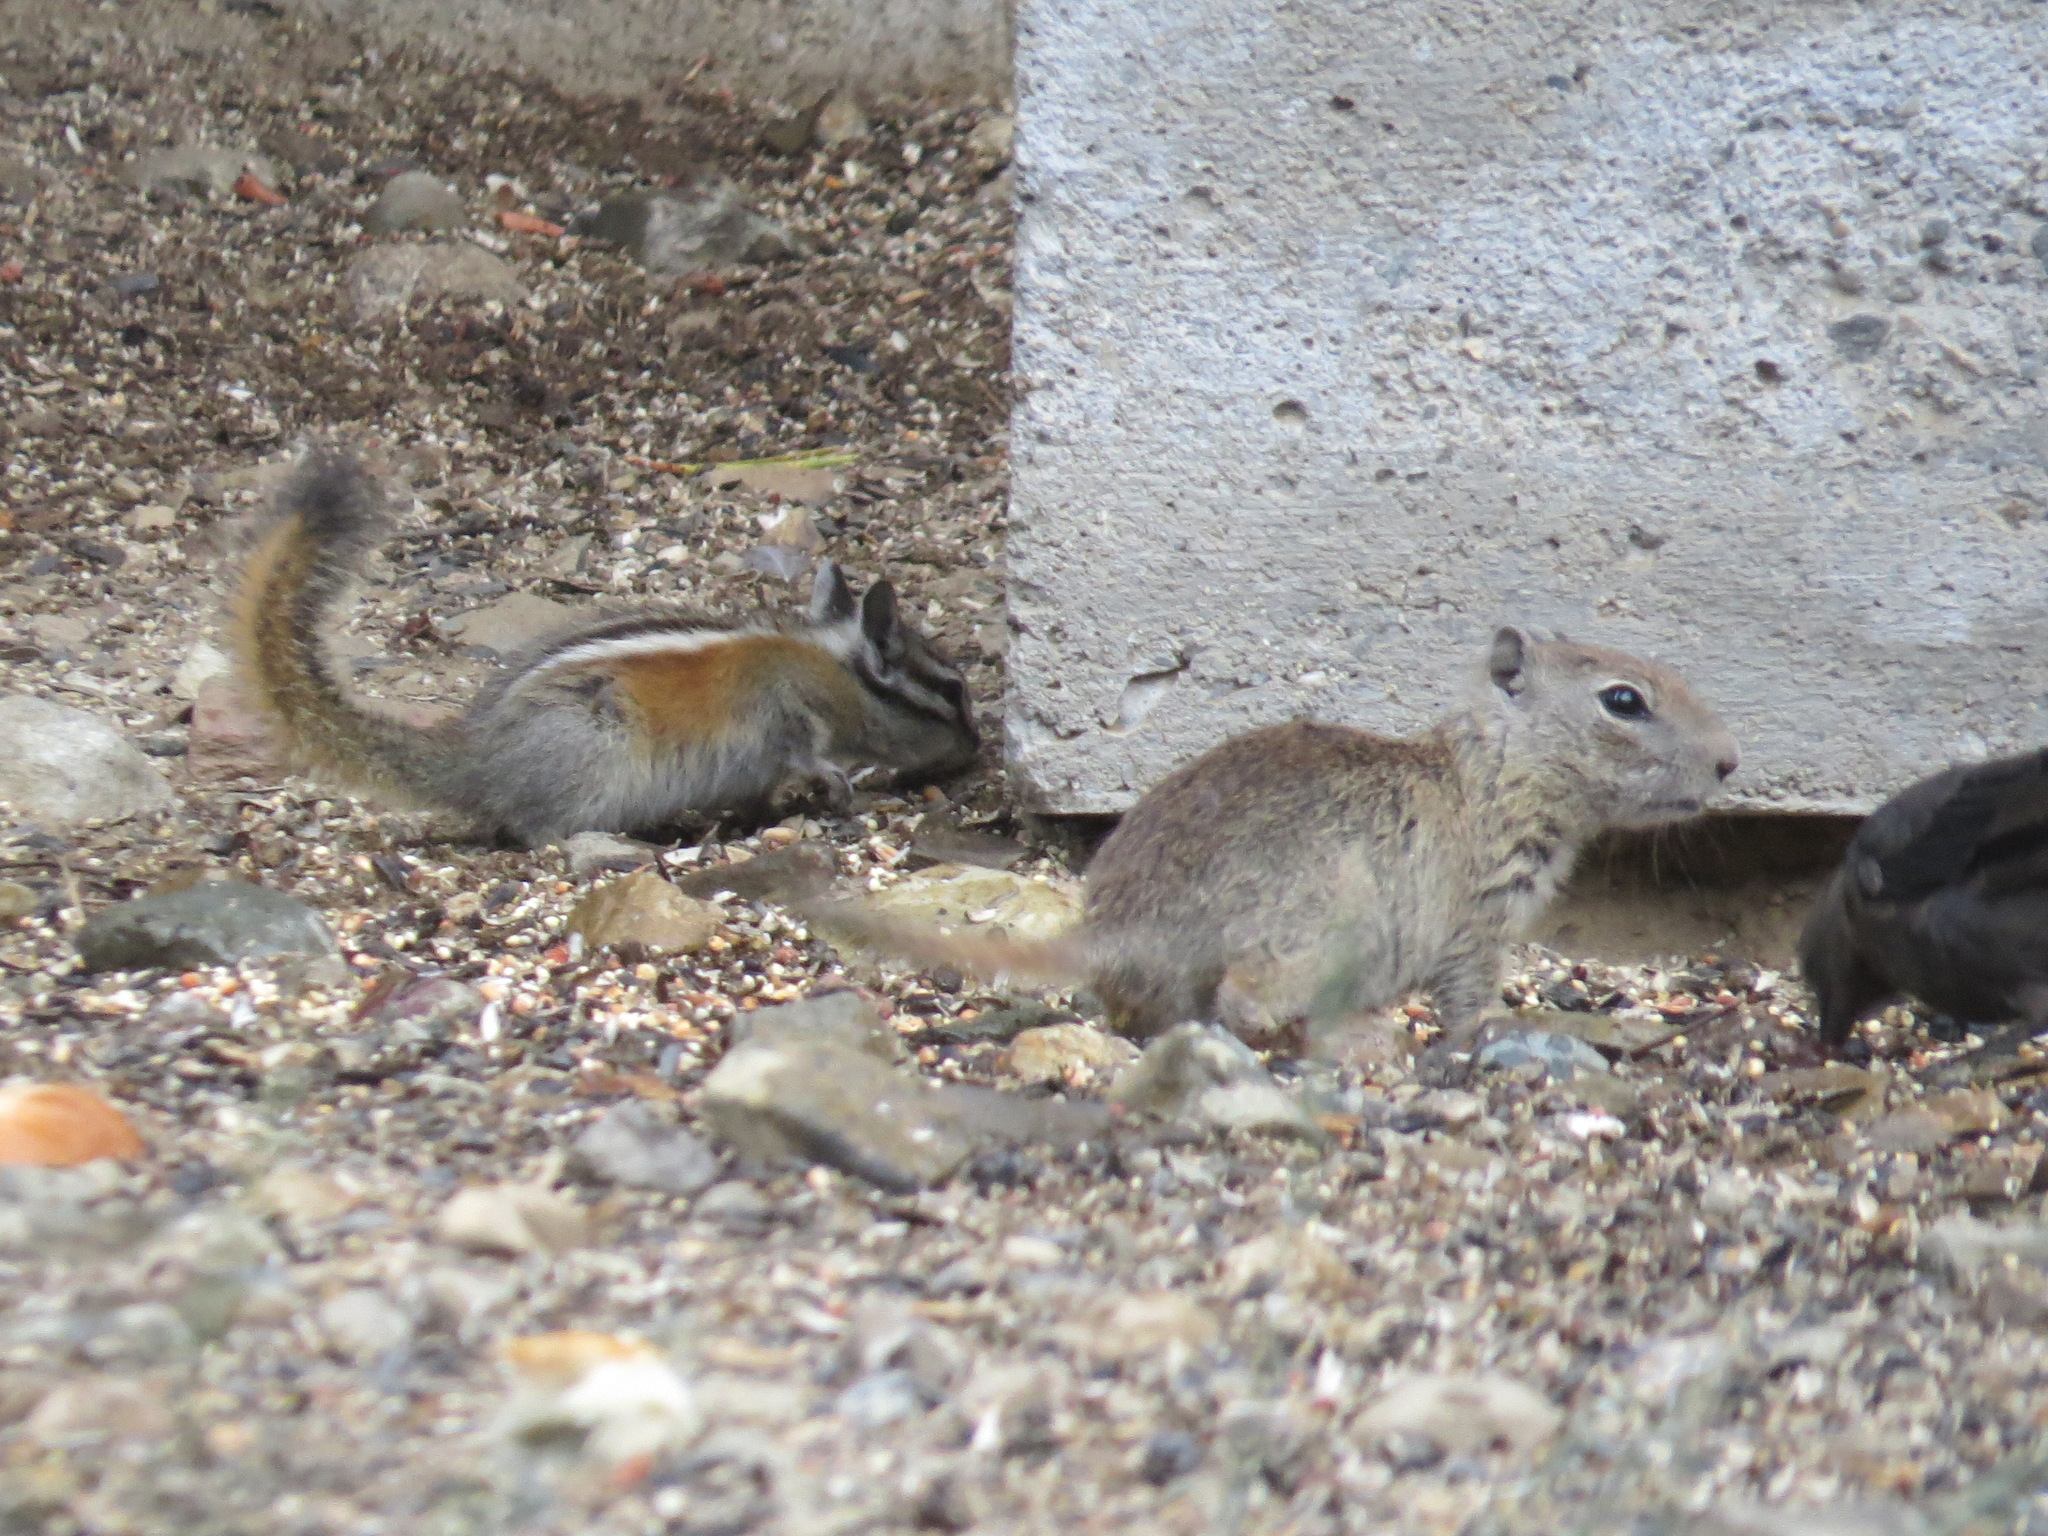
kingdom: Animalia
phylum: Chordata
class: Mammalia
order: Rodentia
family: Sciuridae
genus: Urocitellus
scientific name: Urocitellus beldingi
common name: Belding's ground squirrel
